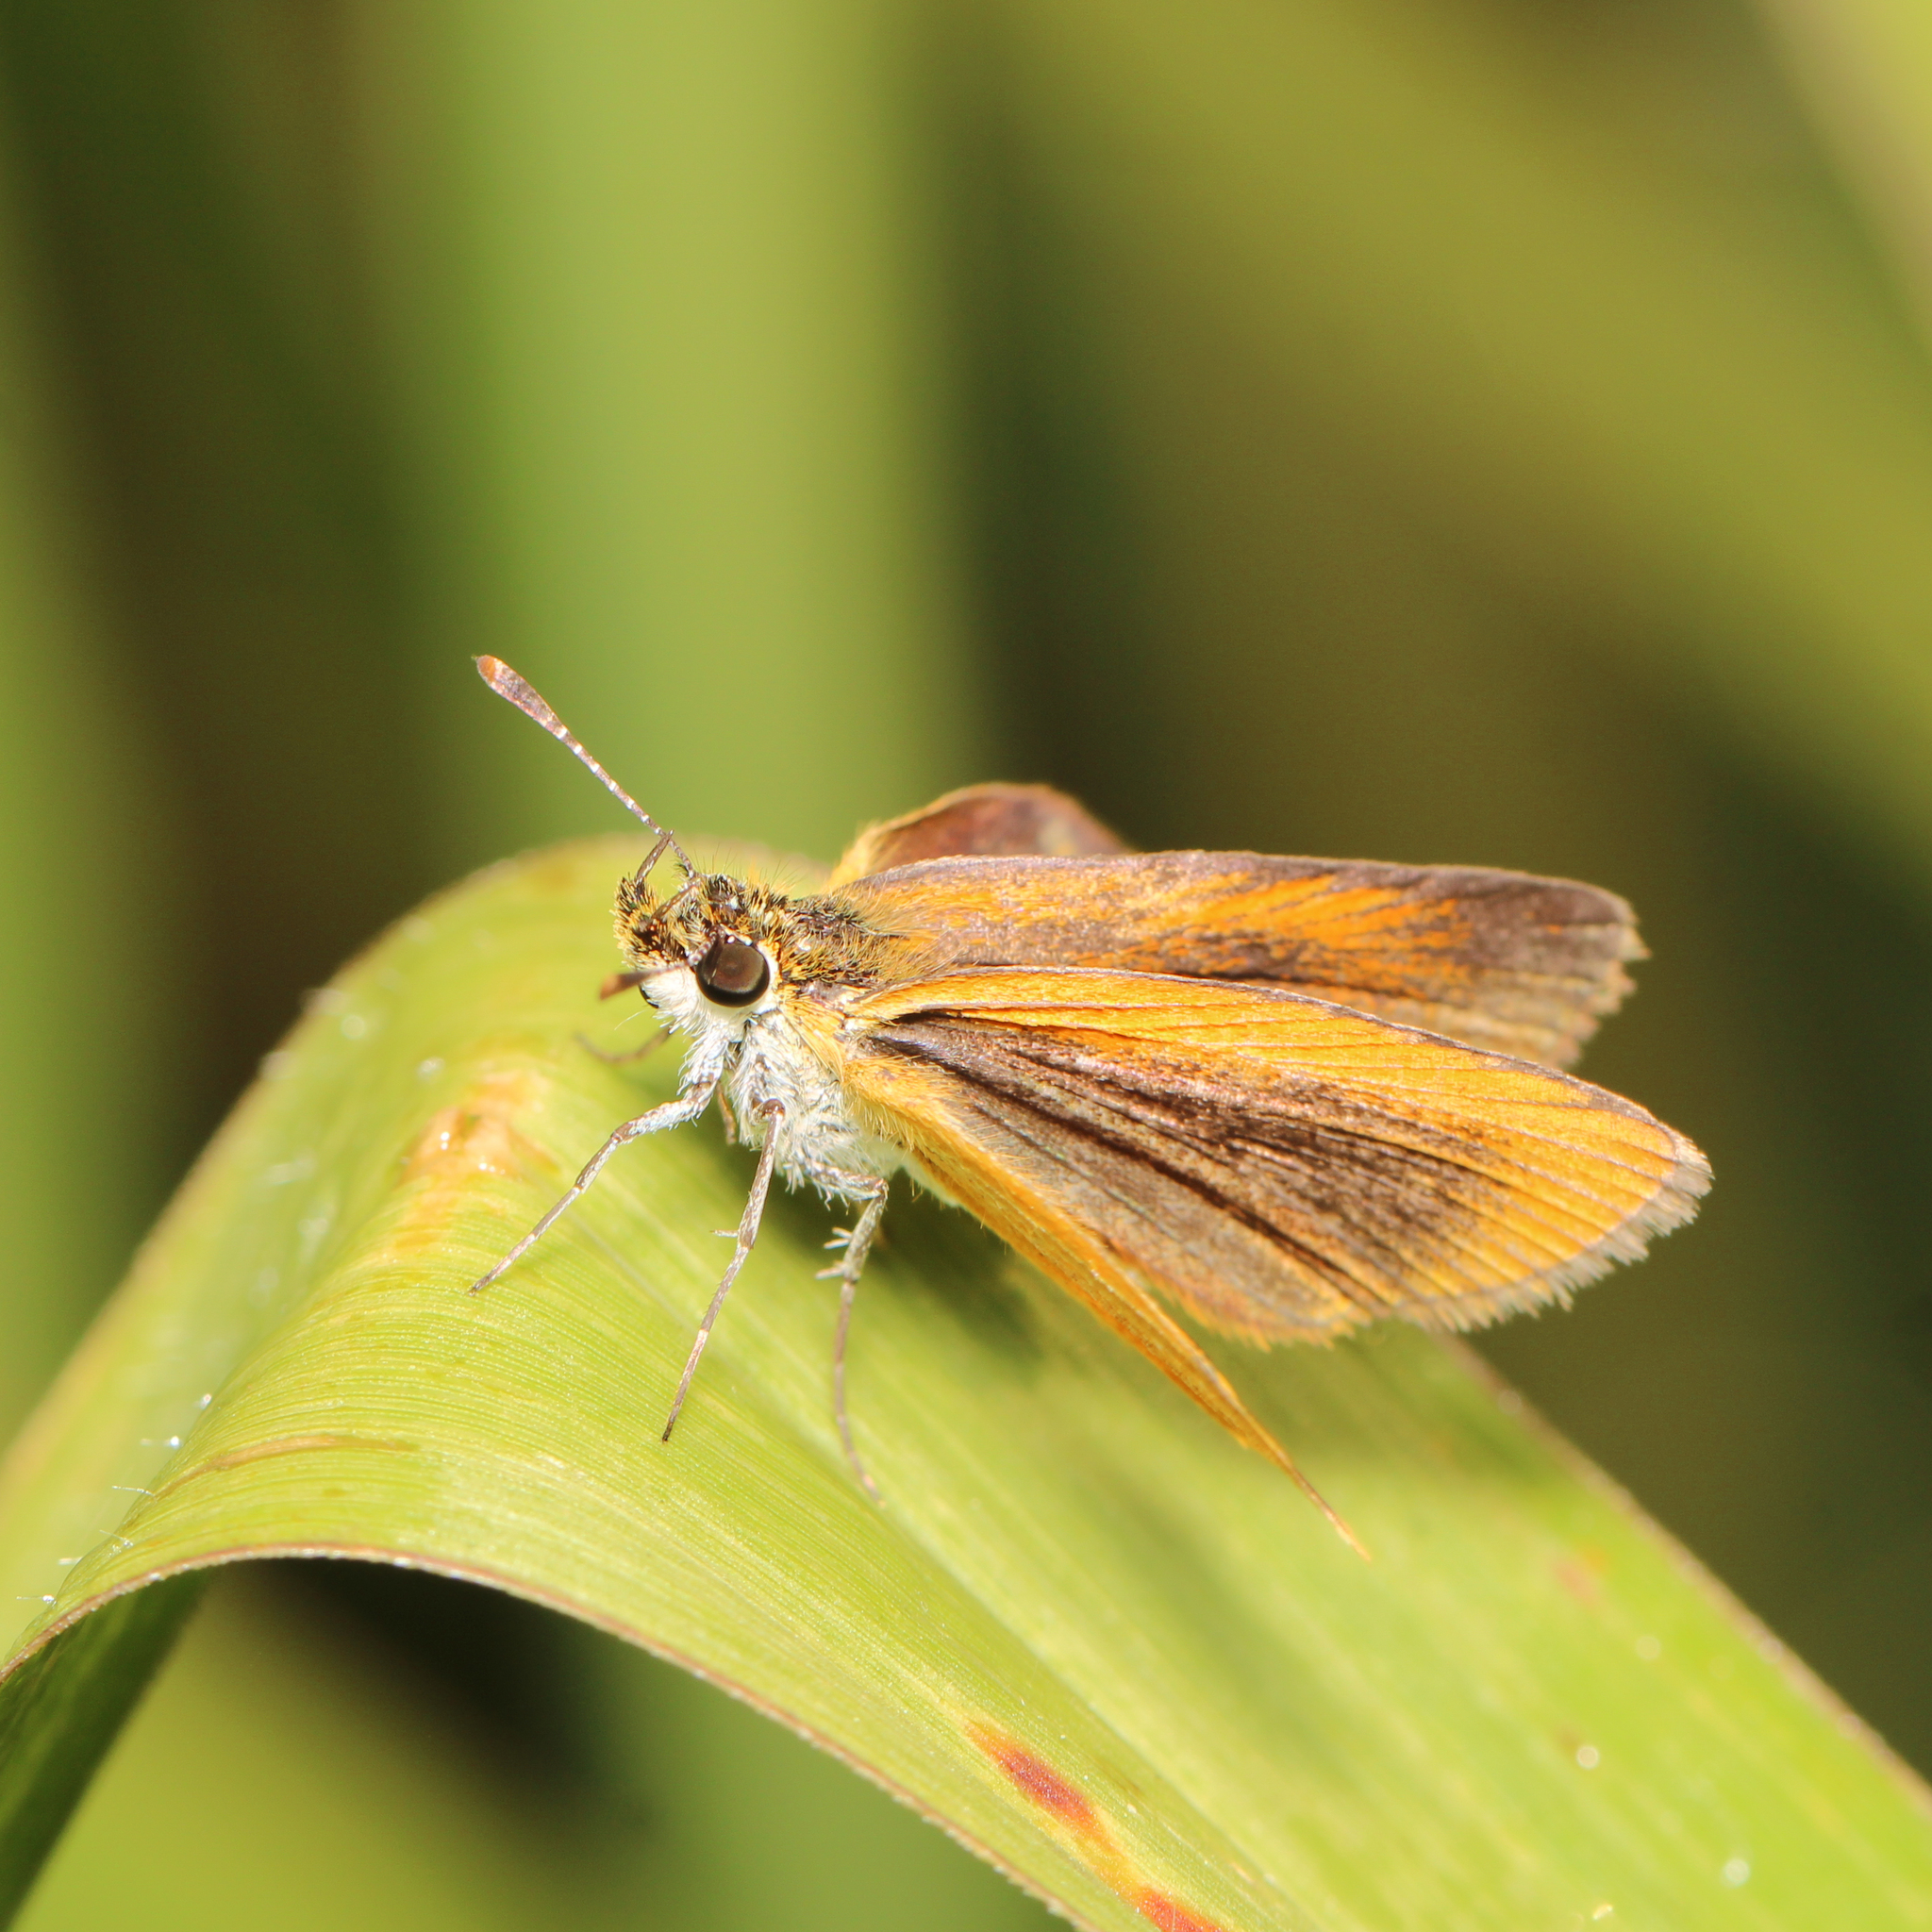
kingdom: Animalia
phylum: Arthropoda
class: Insecta
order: Lepidoptera
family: Hesperiidae
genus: Ancyloxypha
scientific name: Ancyloxypha numitor
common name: Least skipper
